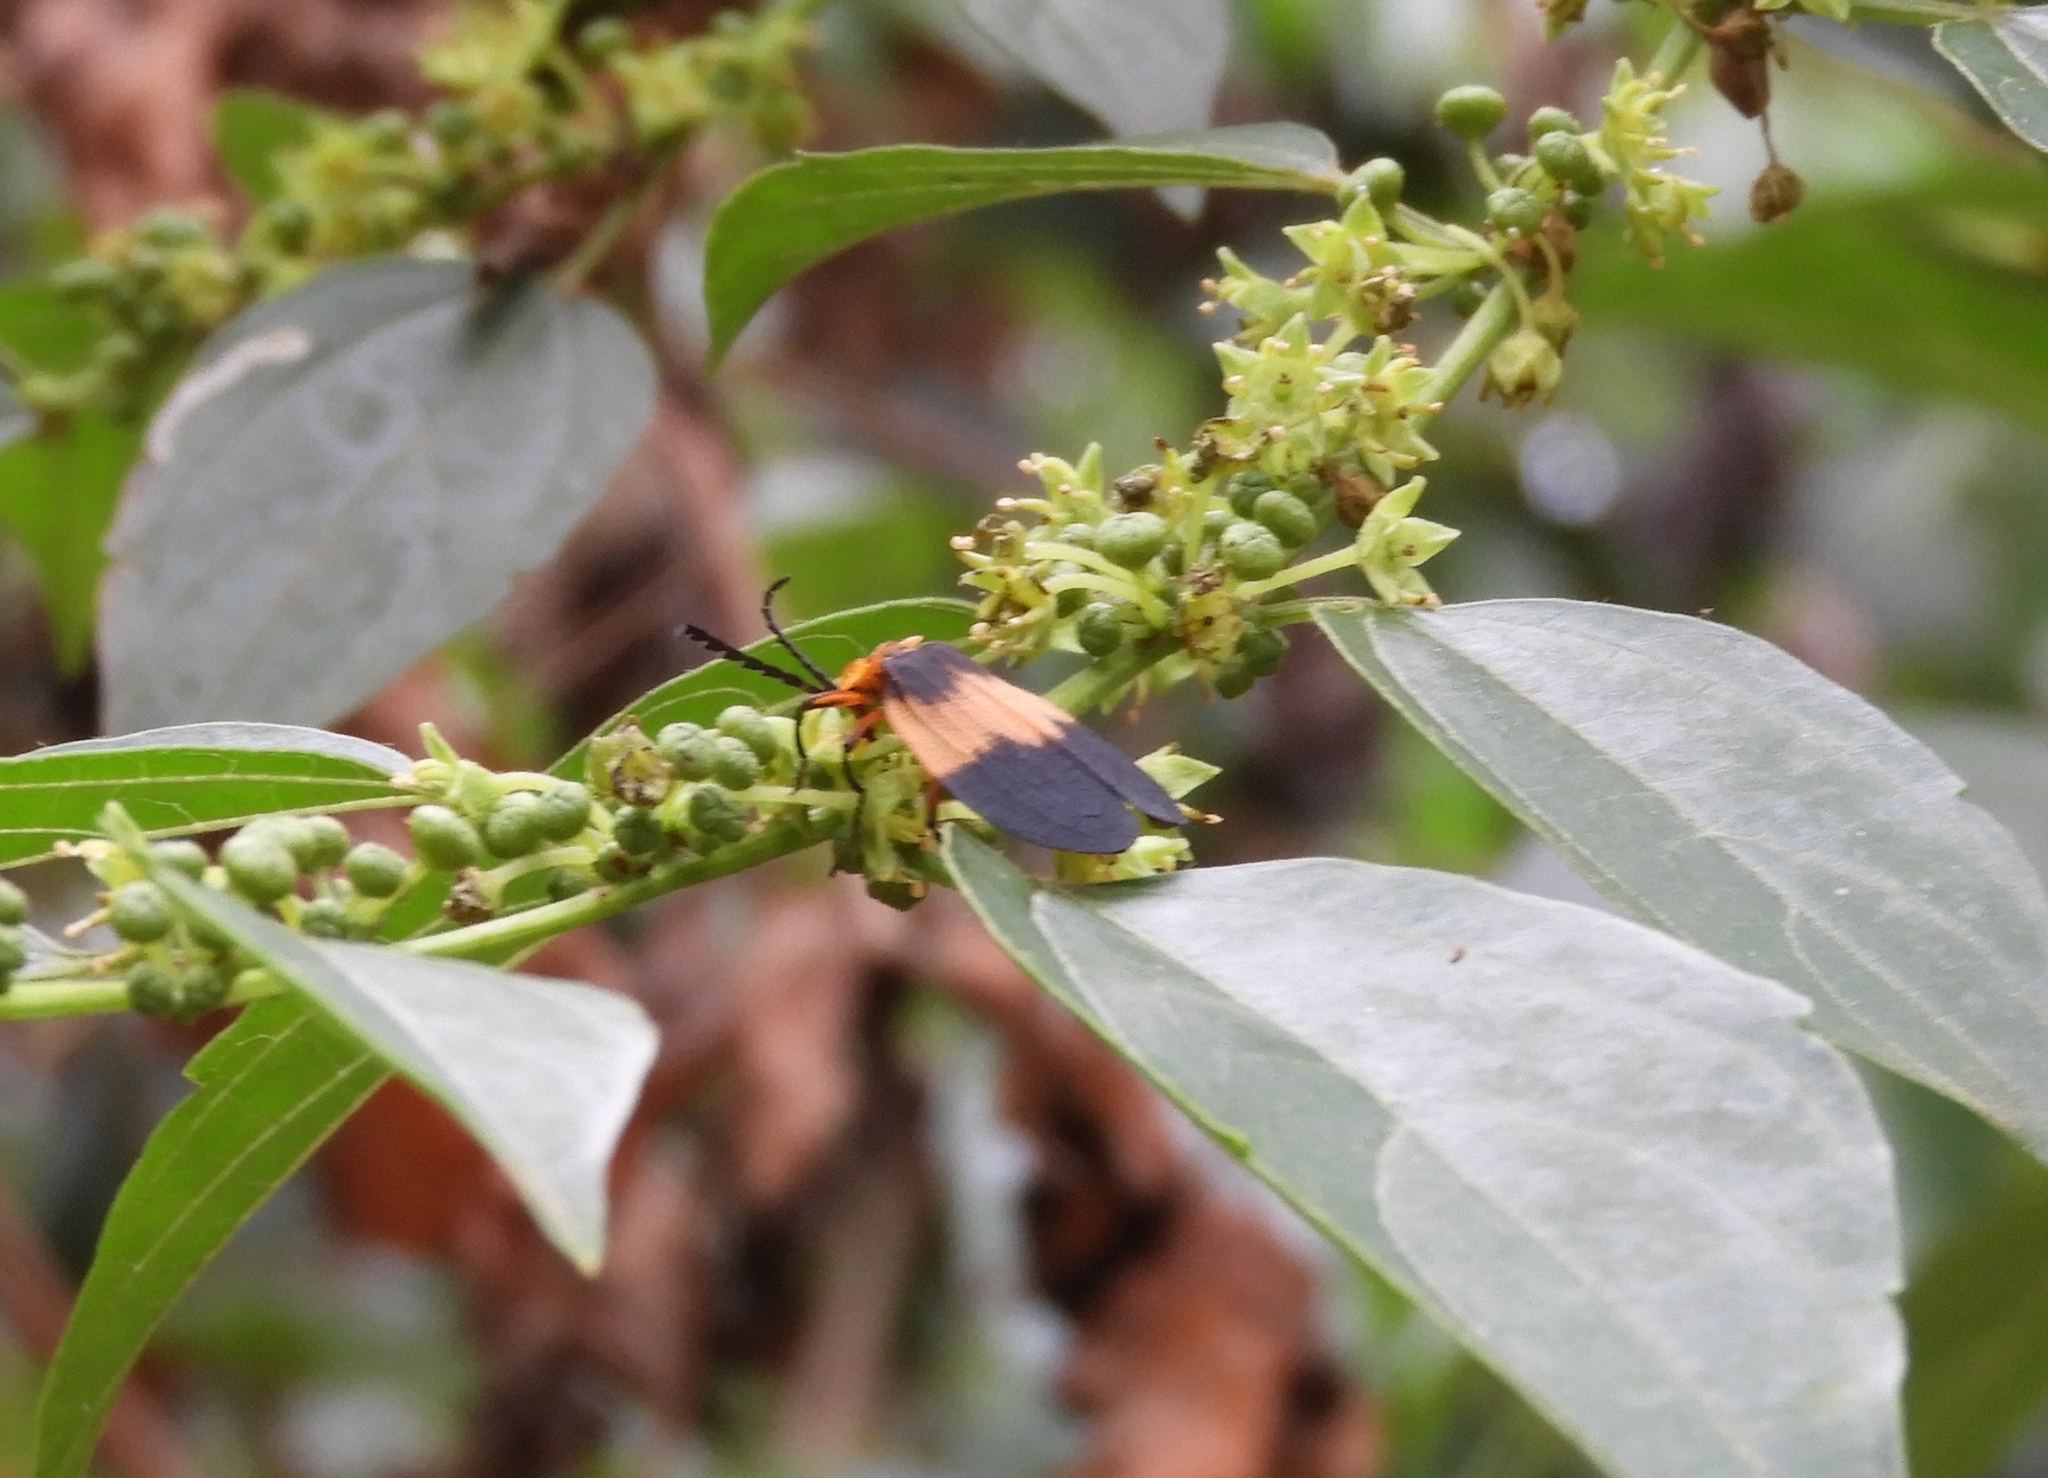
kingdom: Animalia
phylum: Arthropoda
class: Insecta
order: Coleoptera
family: Lycidae
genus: Lycus
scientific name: Lycus
